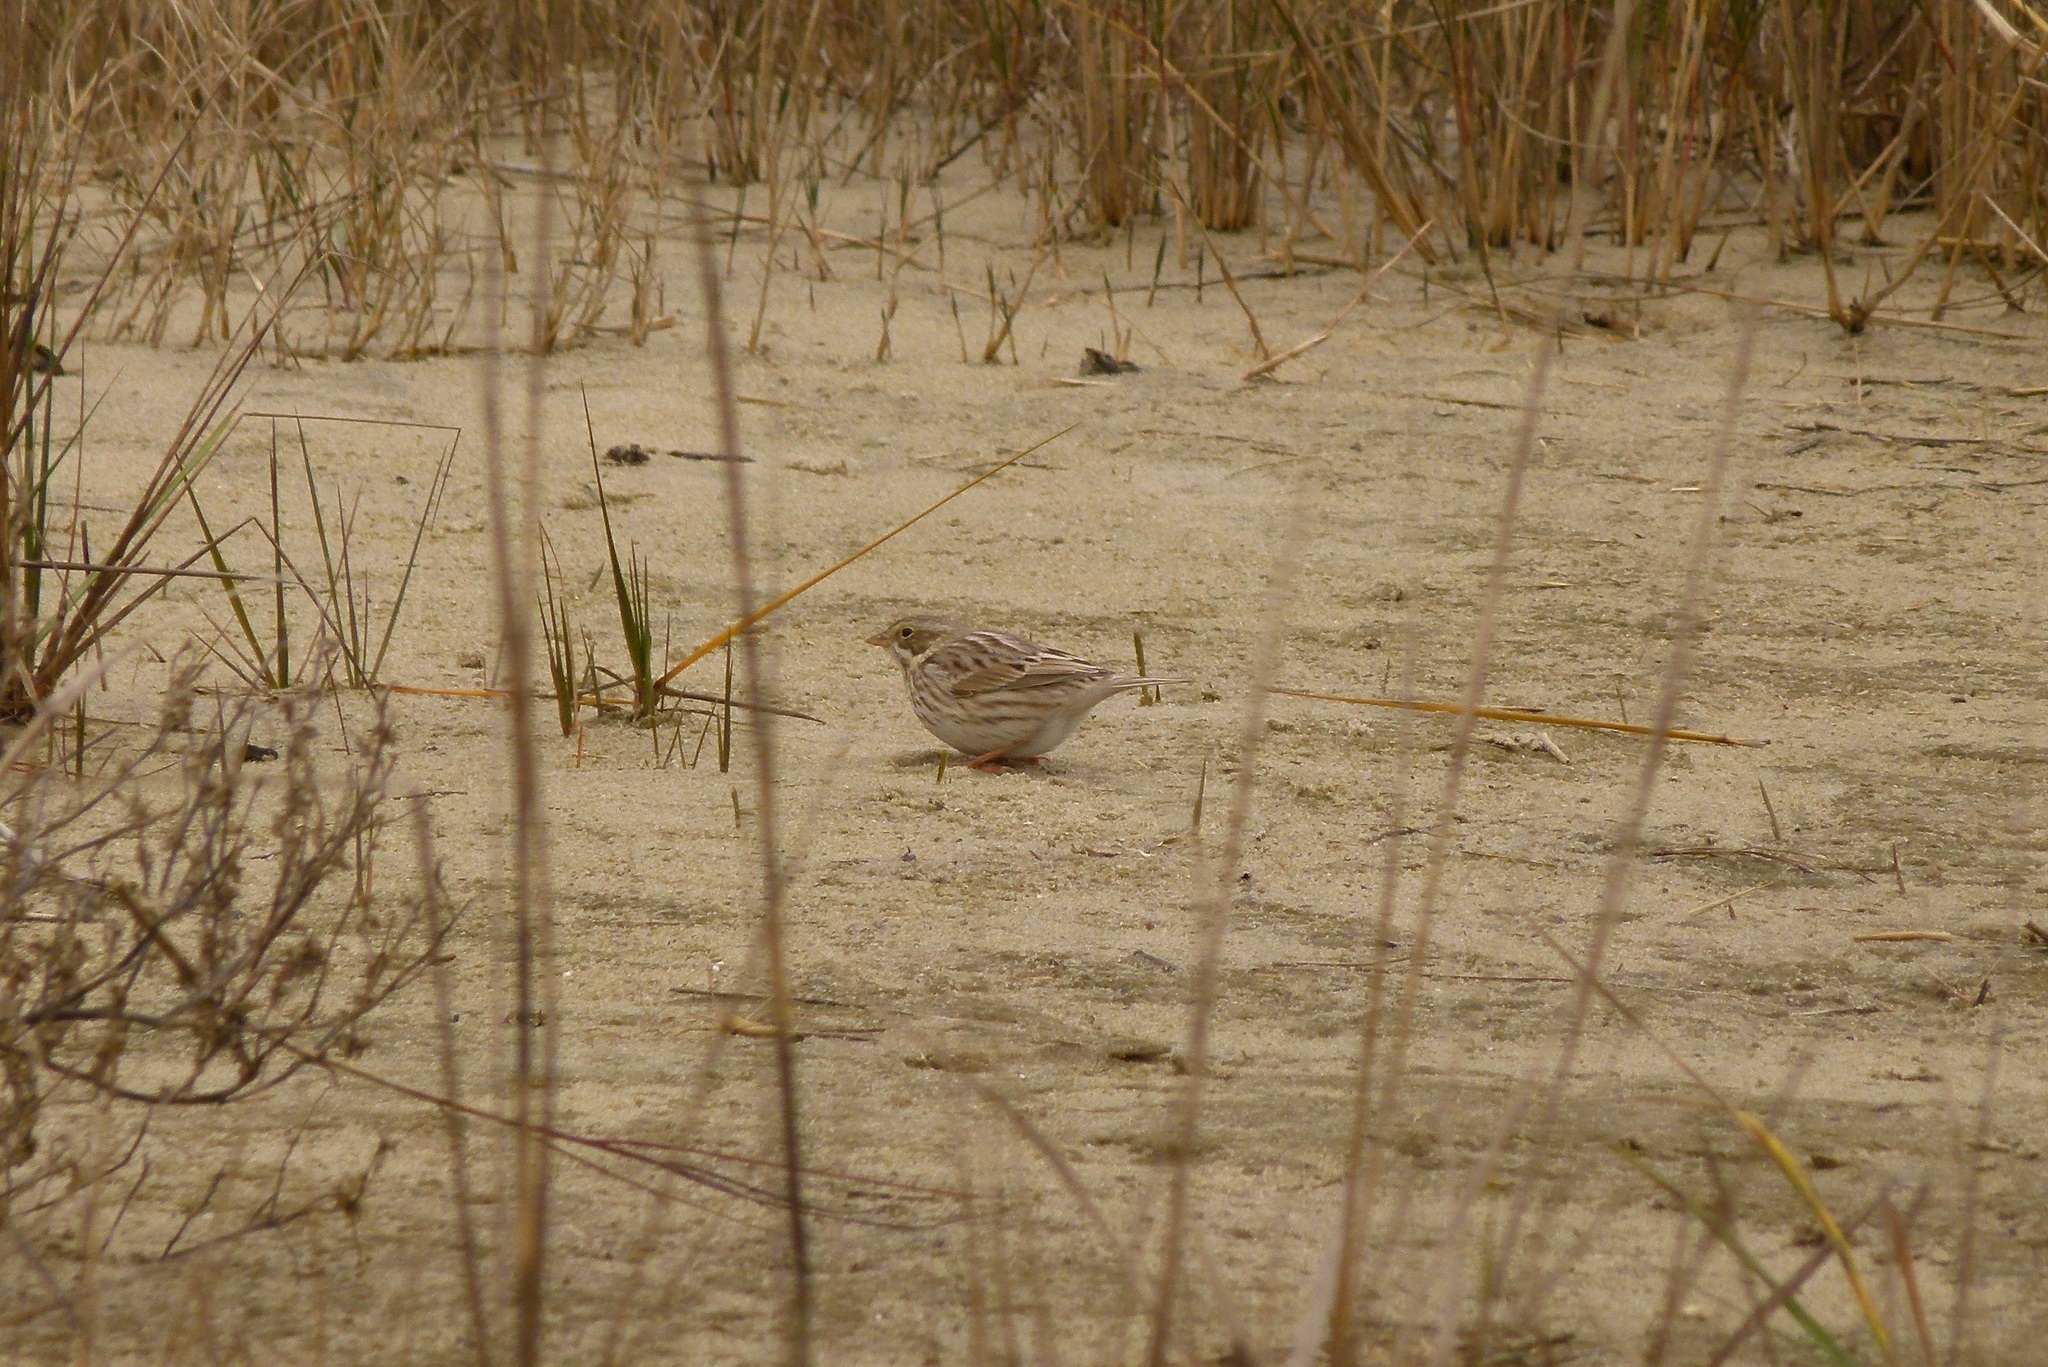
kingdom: Animalia
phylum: Chordata
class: Aves
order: Passeriformes
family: Passerellidae
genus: Passerculus
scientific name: Passerculus sandwichensis
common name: Savannah sparrow
